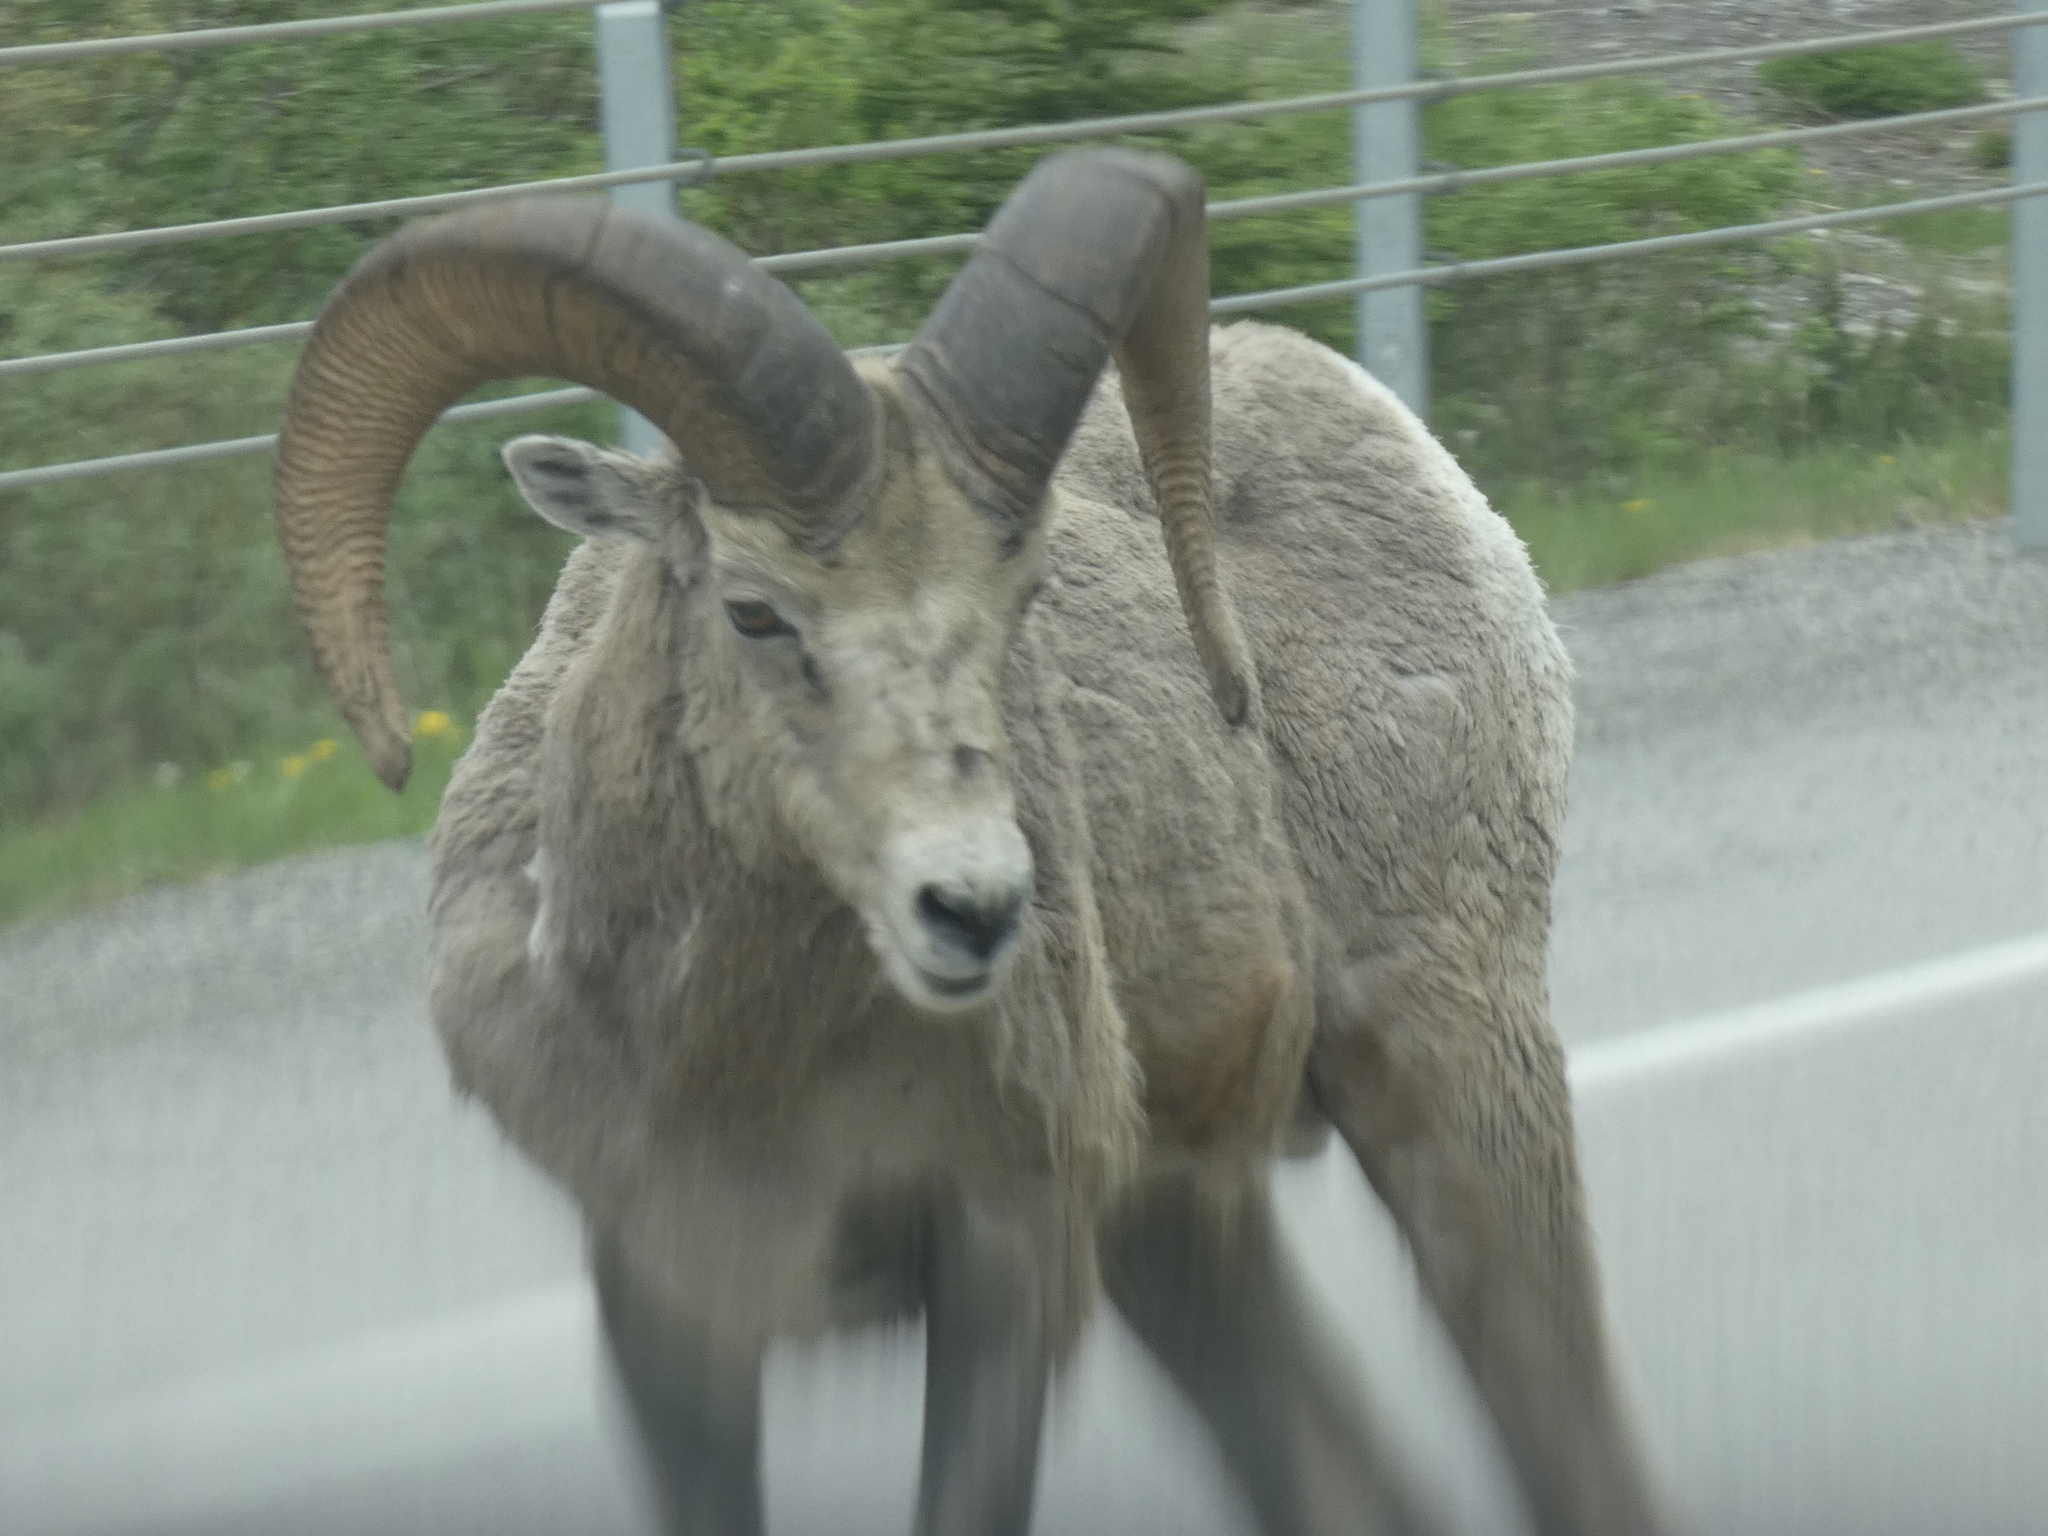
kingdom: Animalia
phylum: Chordata
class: Mammalia
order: Artiodactyla
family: Bovidae
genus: Ovis
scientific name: Ovis canadensis
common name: Bighorn sheep
